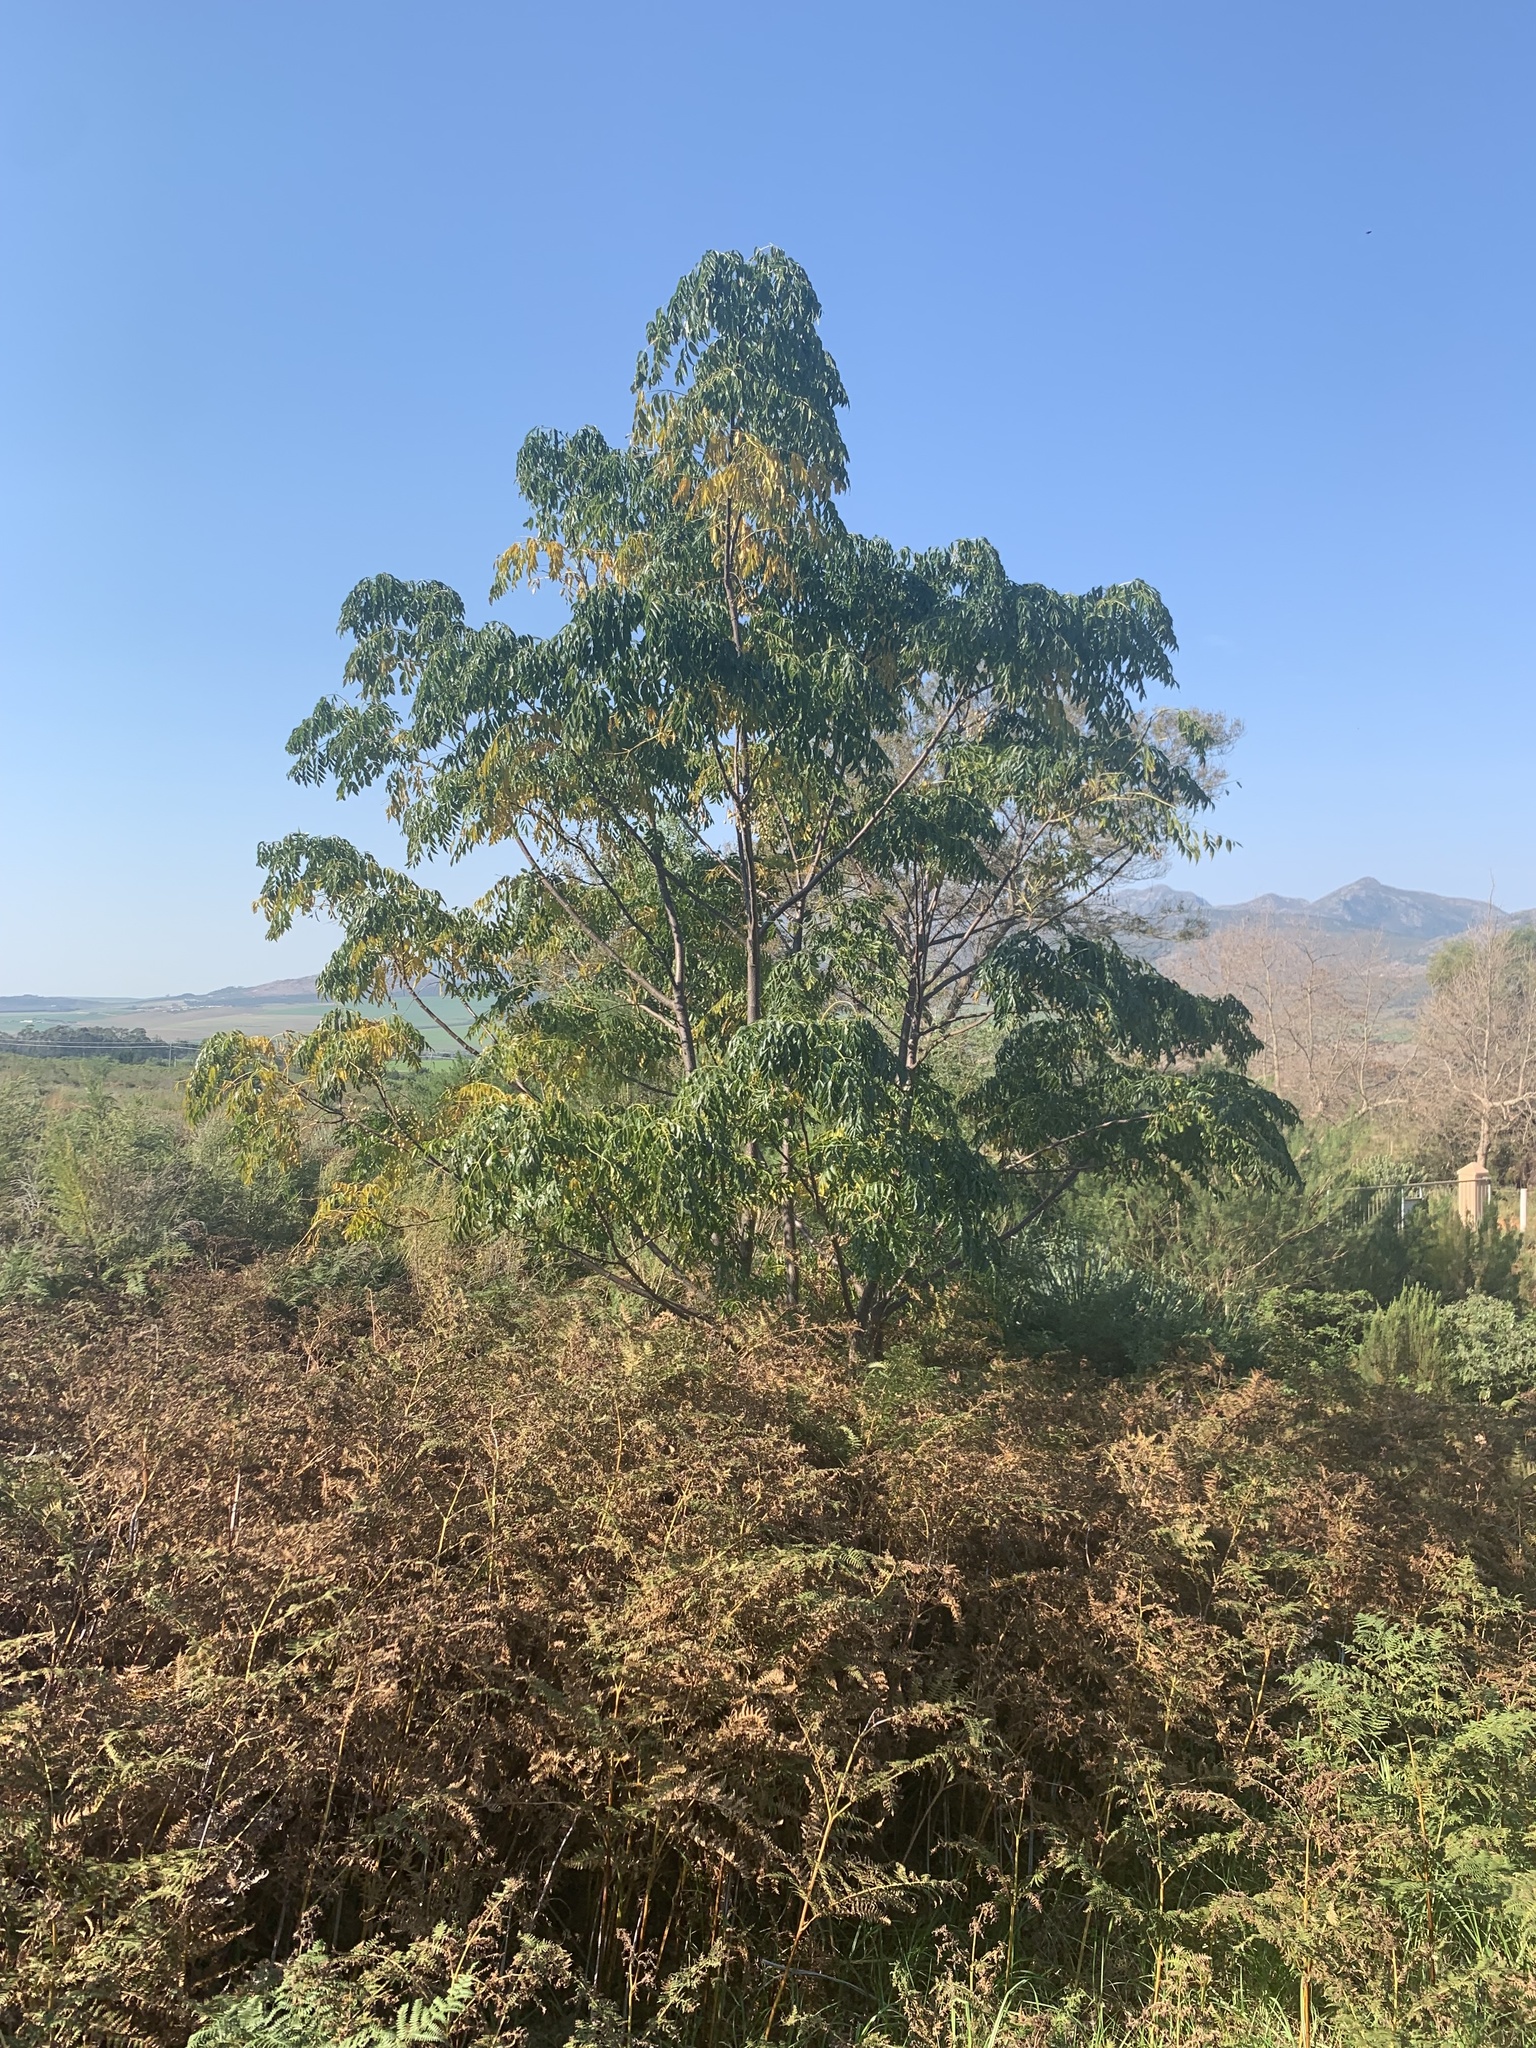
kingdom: Plantae
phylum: Tracheophyta
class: Magnoliopsida
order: Sapindales
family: Meliaceae
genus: Melia
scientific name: Melia azedarach
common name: Chinaberrytree
